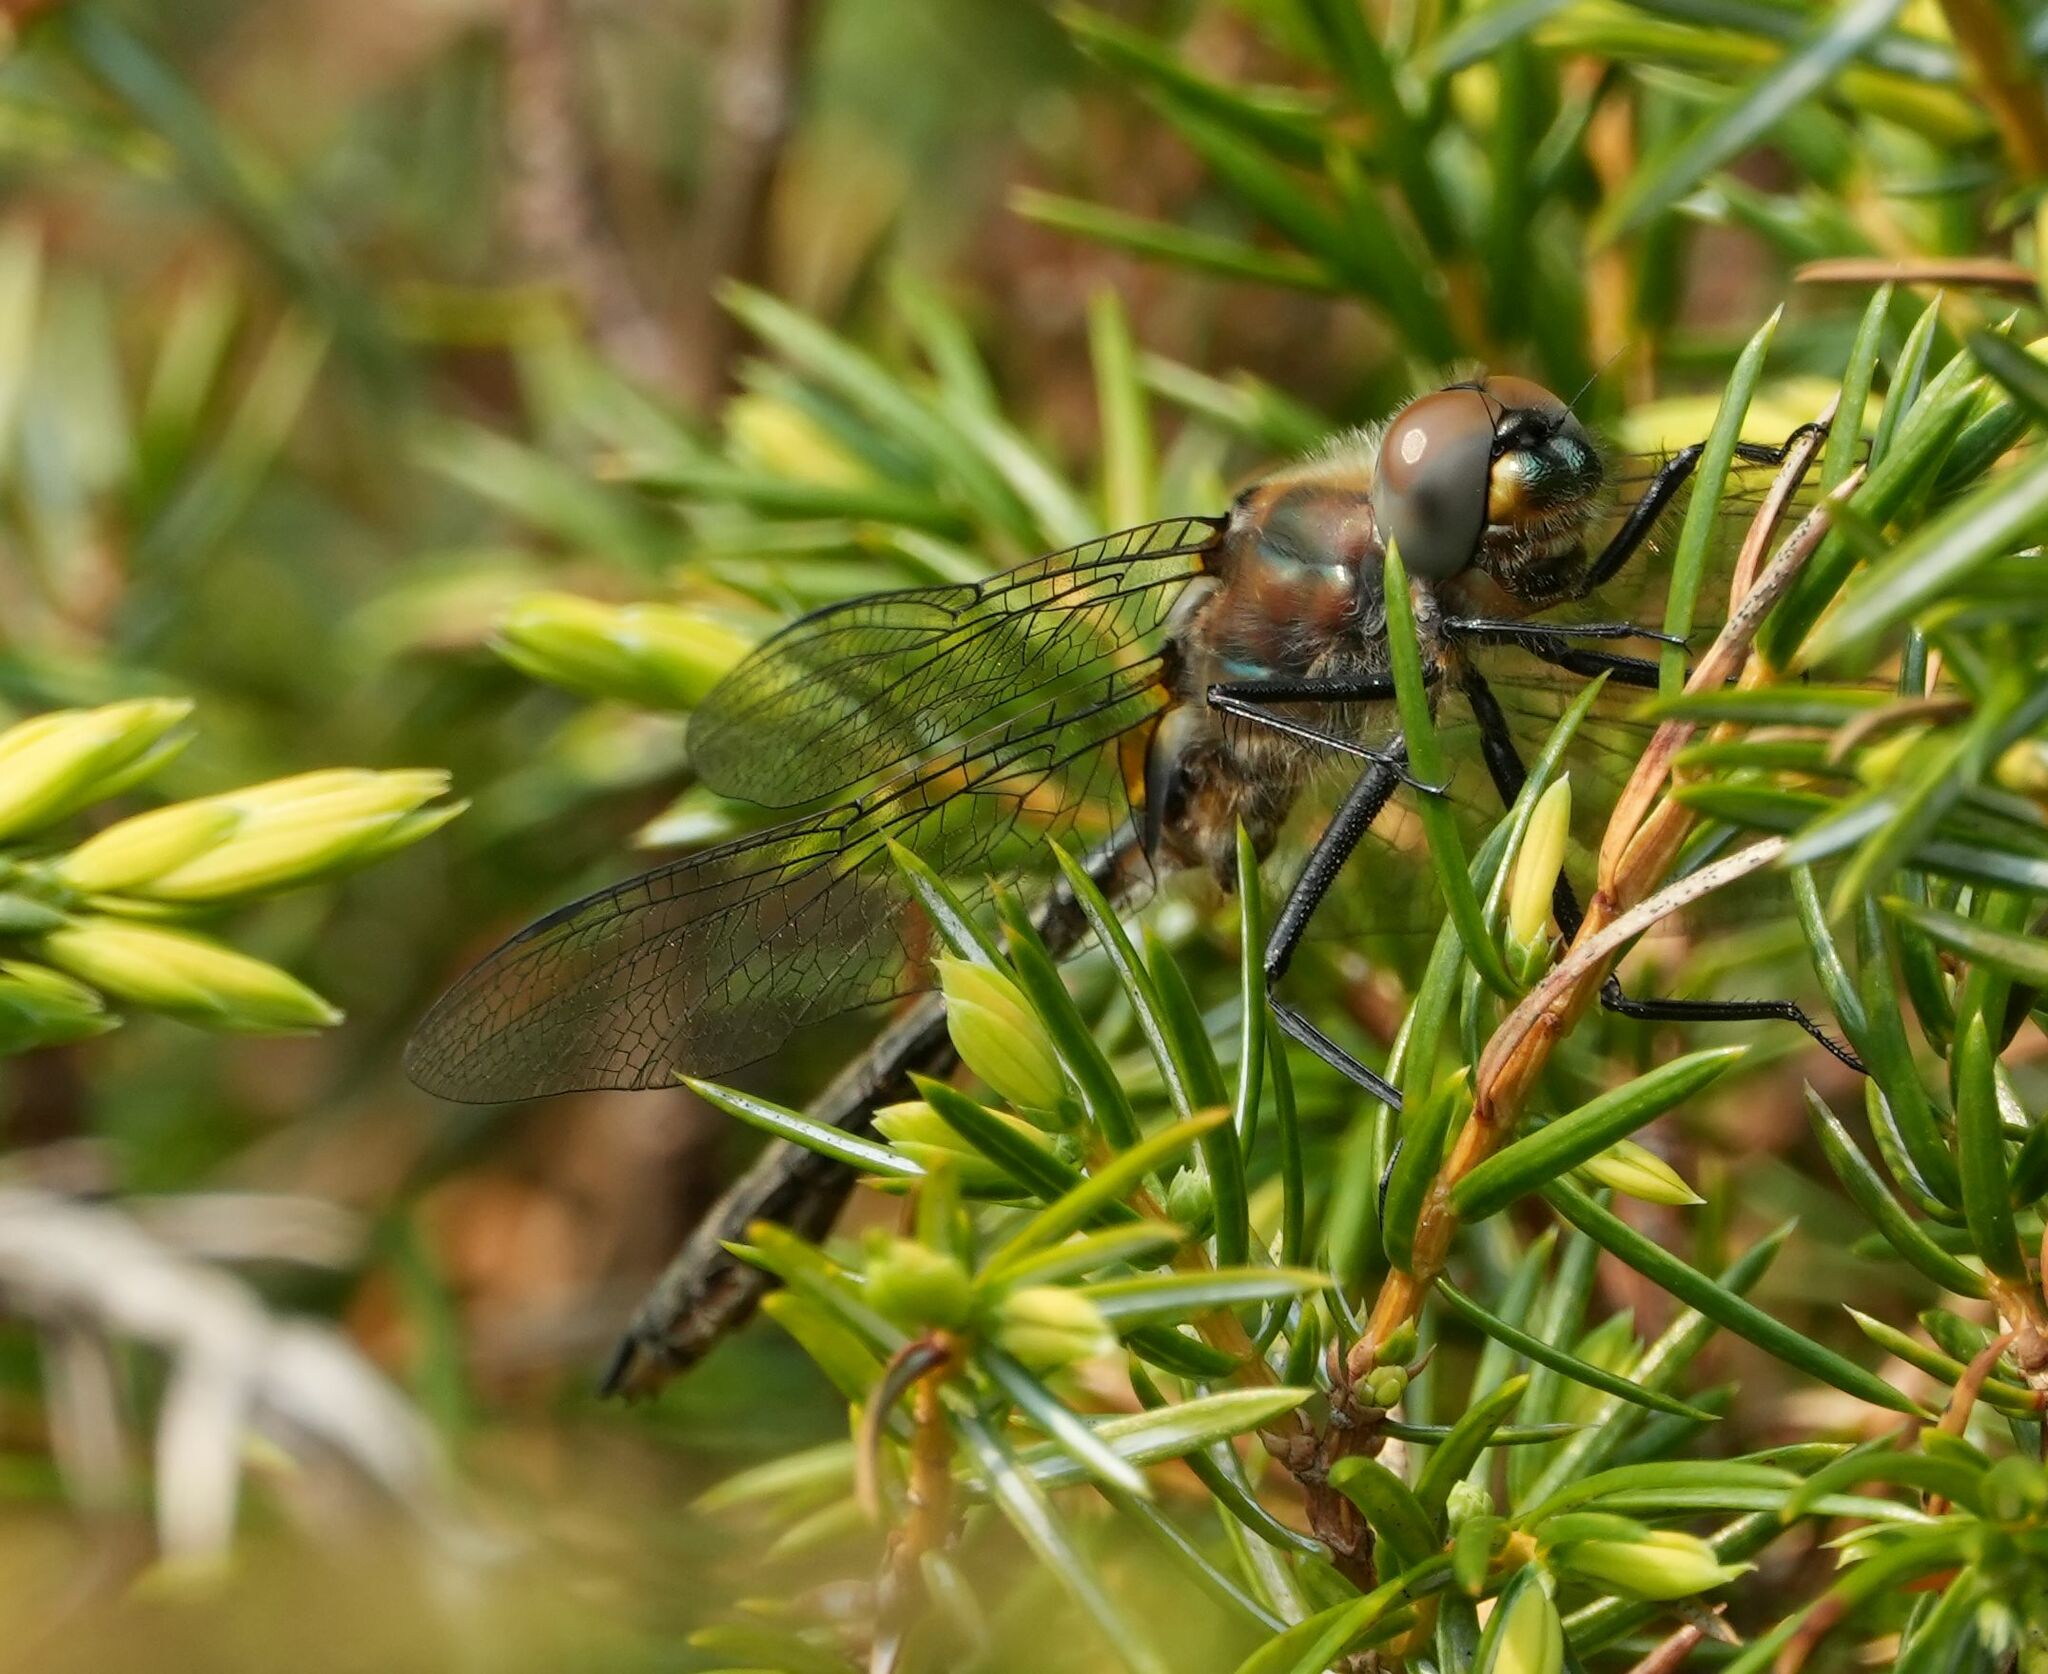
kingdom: Animalia
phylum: Arthropoda
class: Insecta
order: Odonata
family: Corduliidae
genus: Cordulia
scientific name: Cordulia shurtleffii
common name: American emerald
